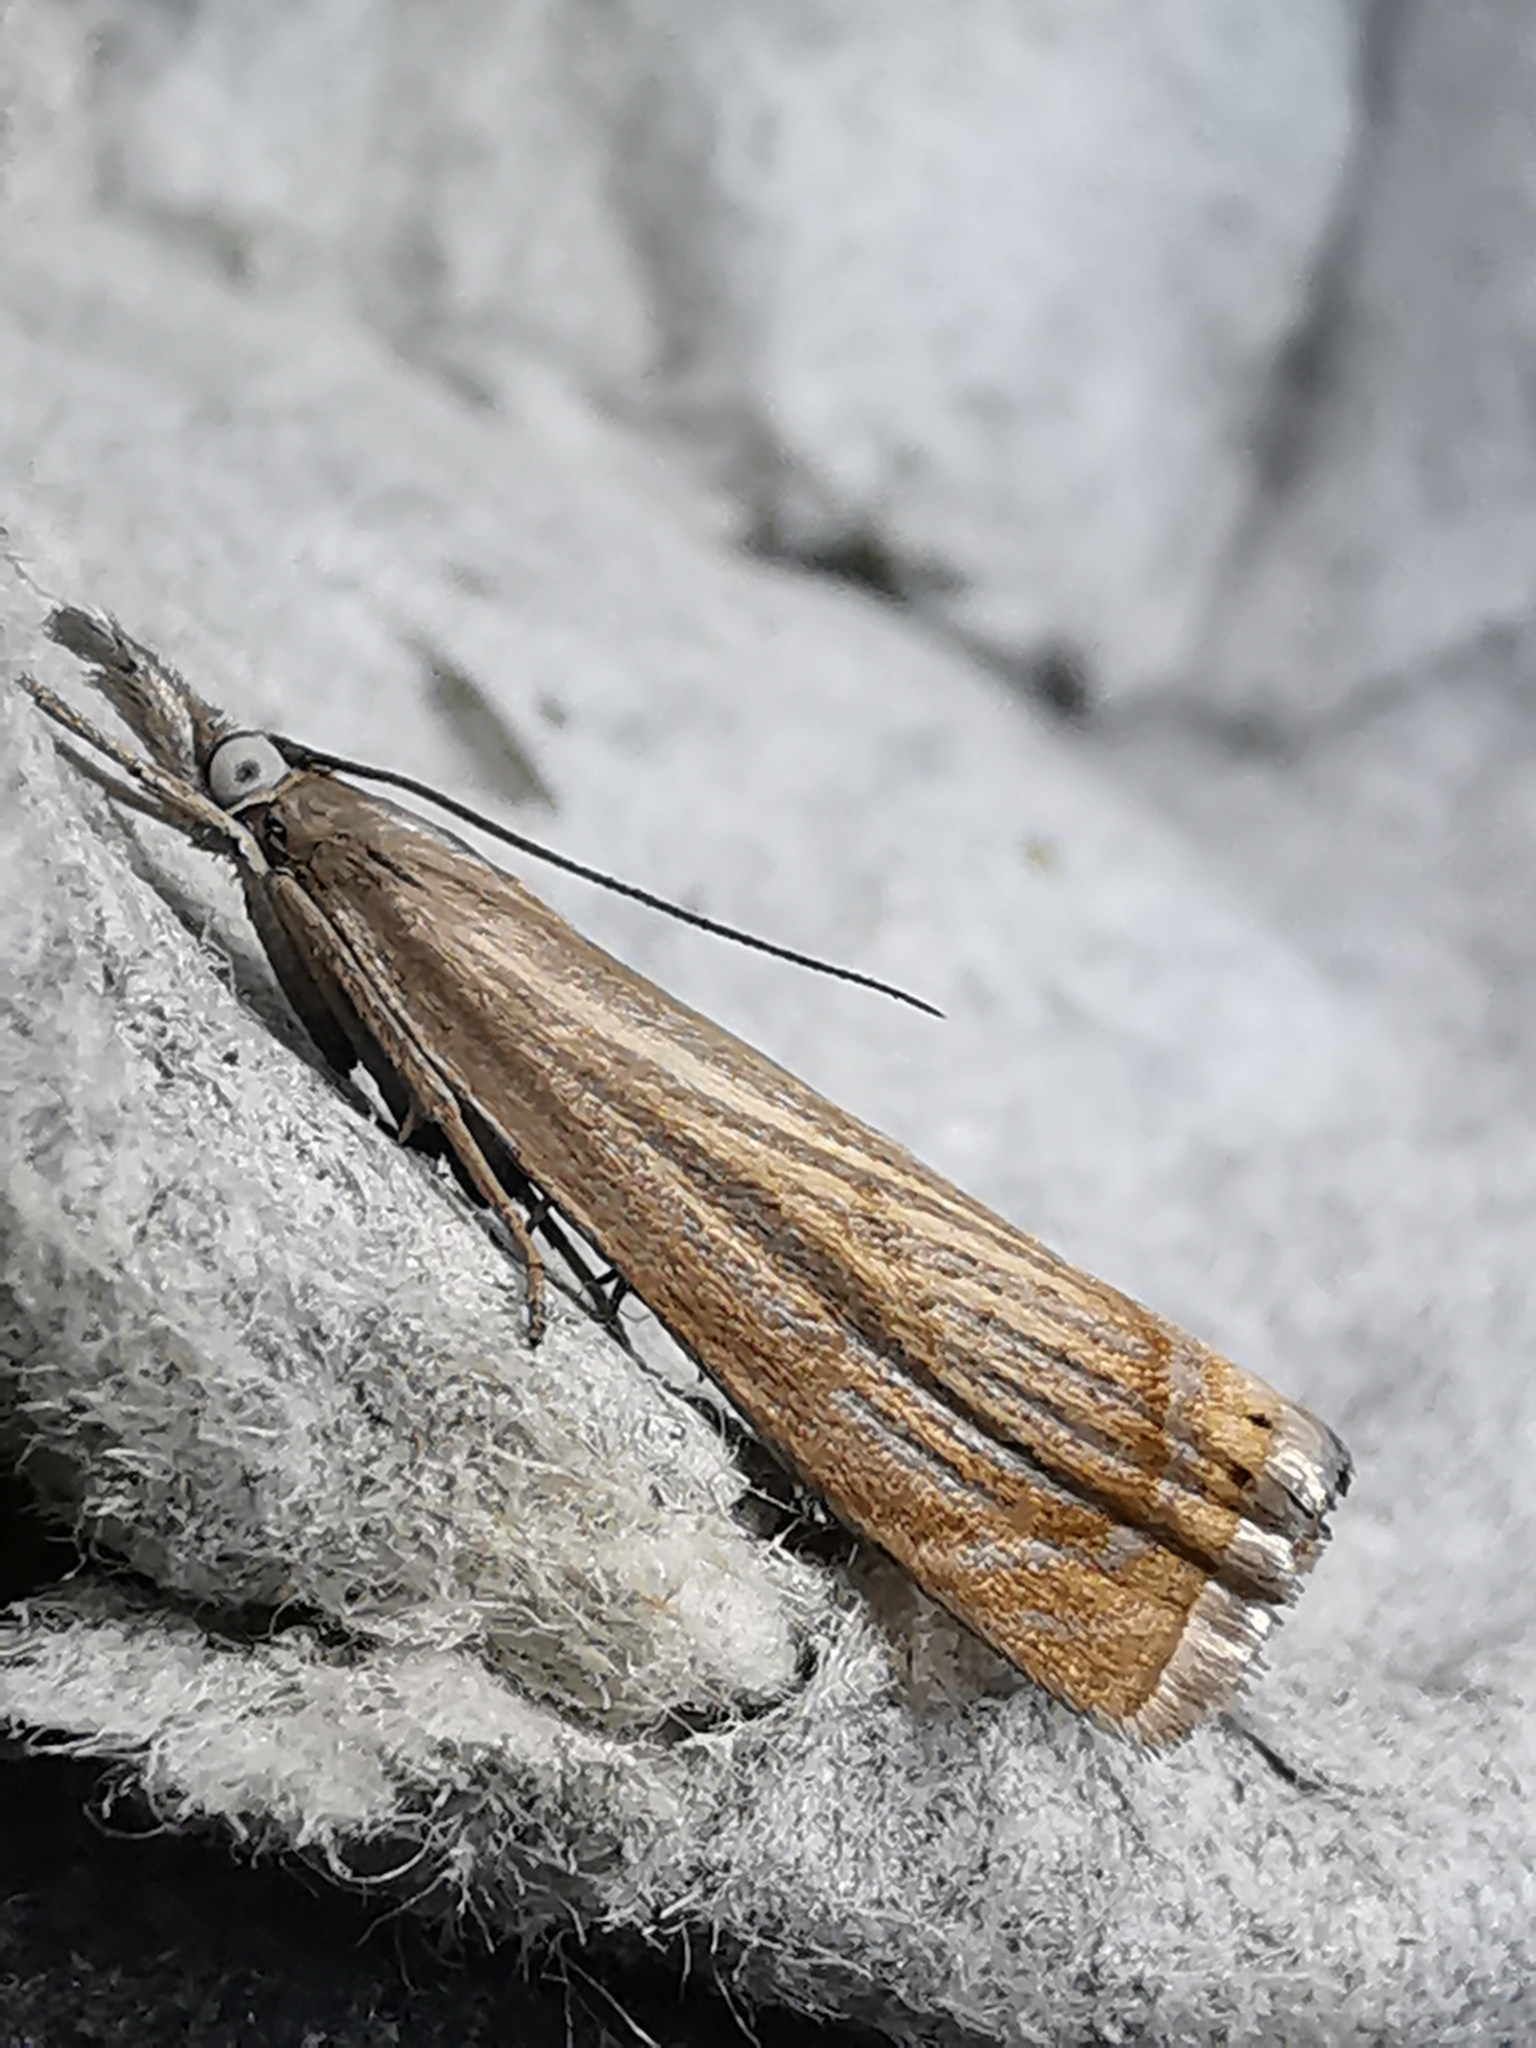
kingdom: Animalia
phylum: Arthropoda
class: Insecta
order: Lepidoptera
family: Crambidae
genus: Chrysoteuchia
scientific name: Chrysoteuchia culmella
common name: Garden grass-veneer
